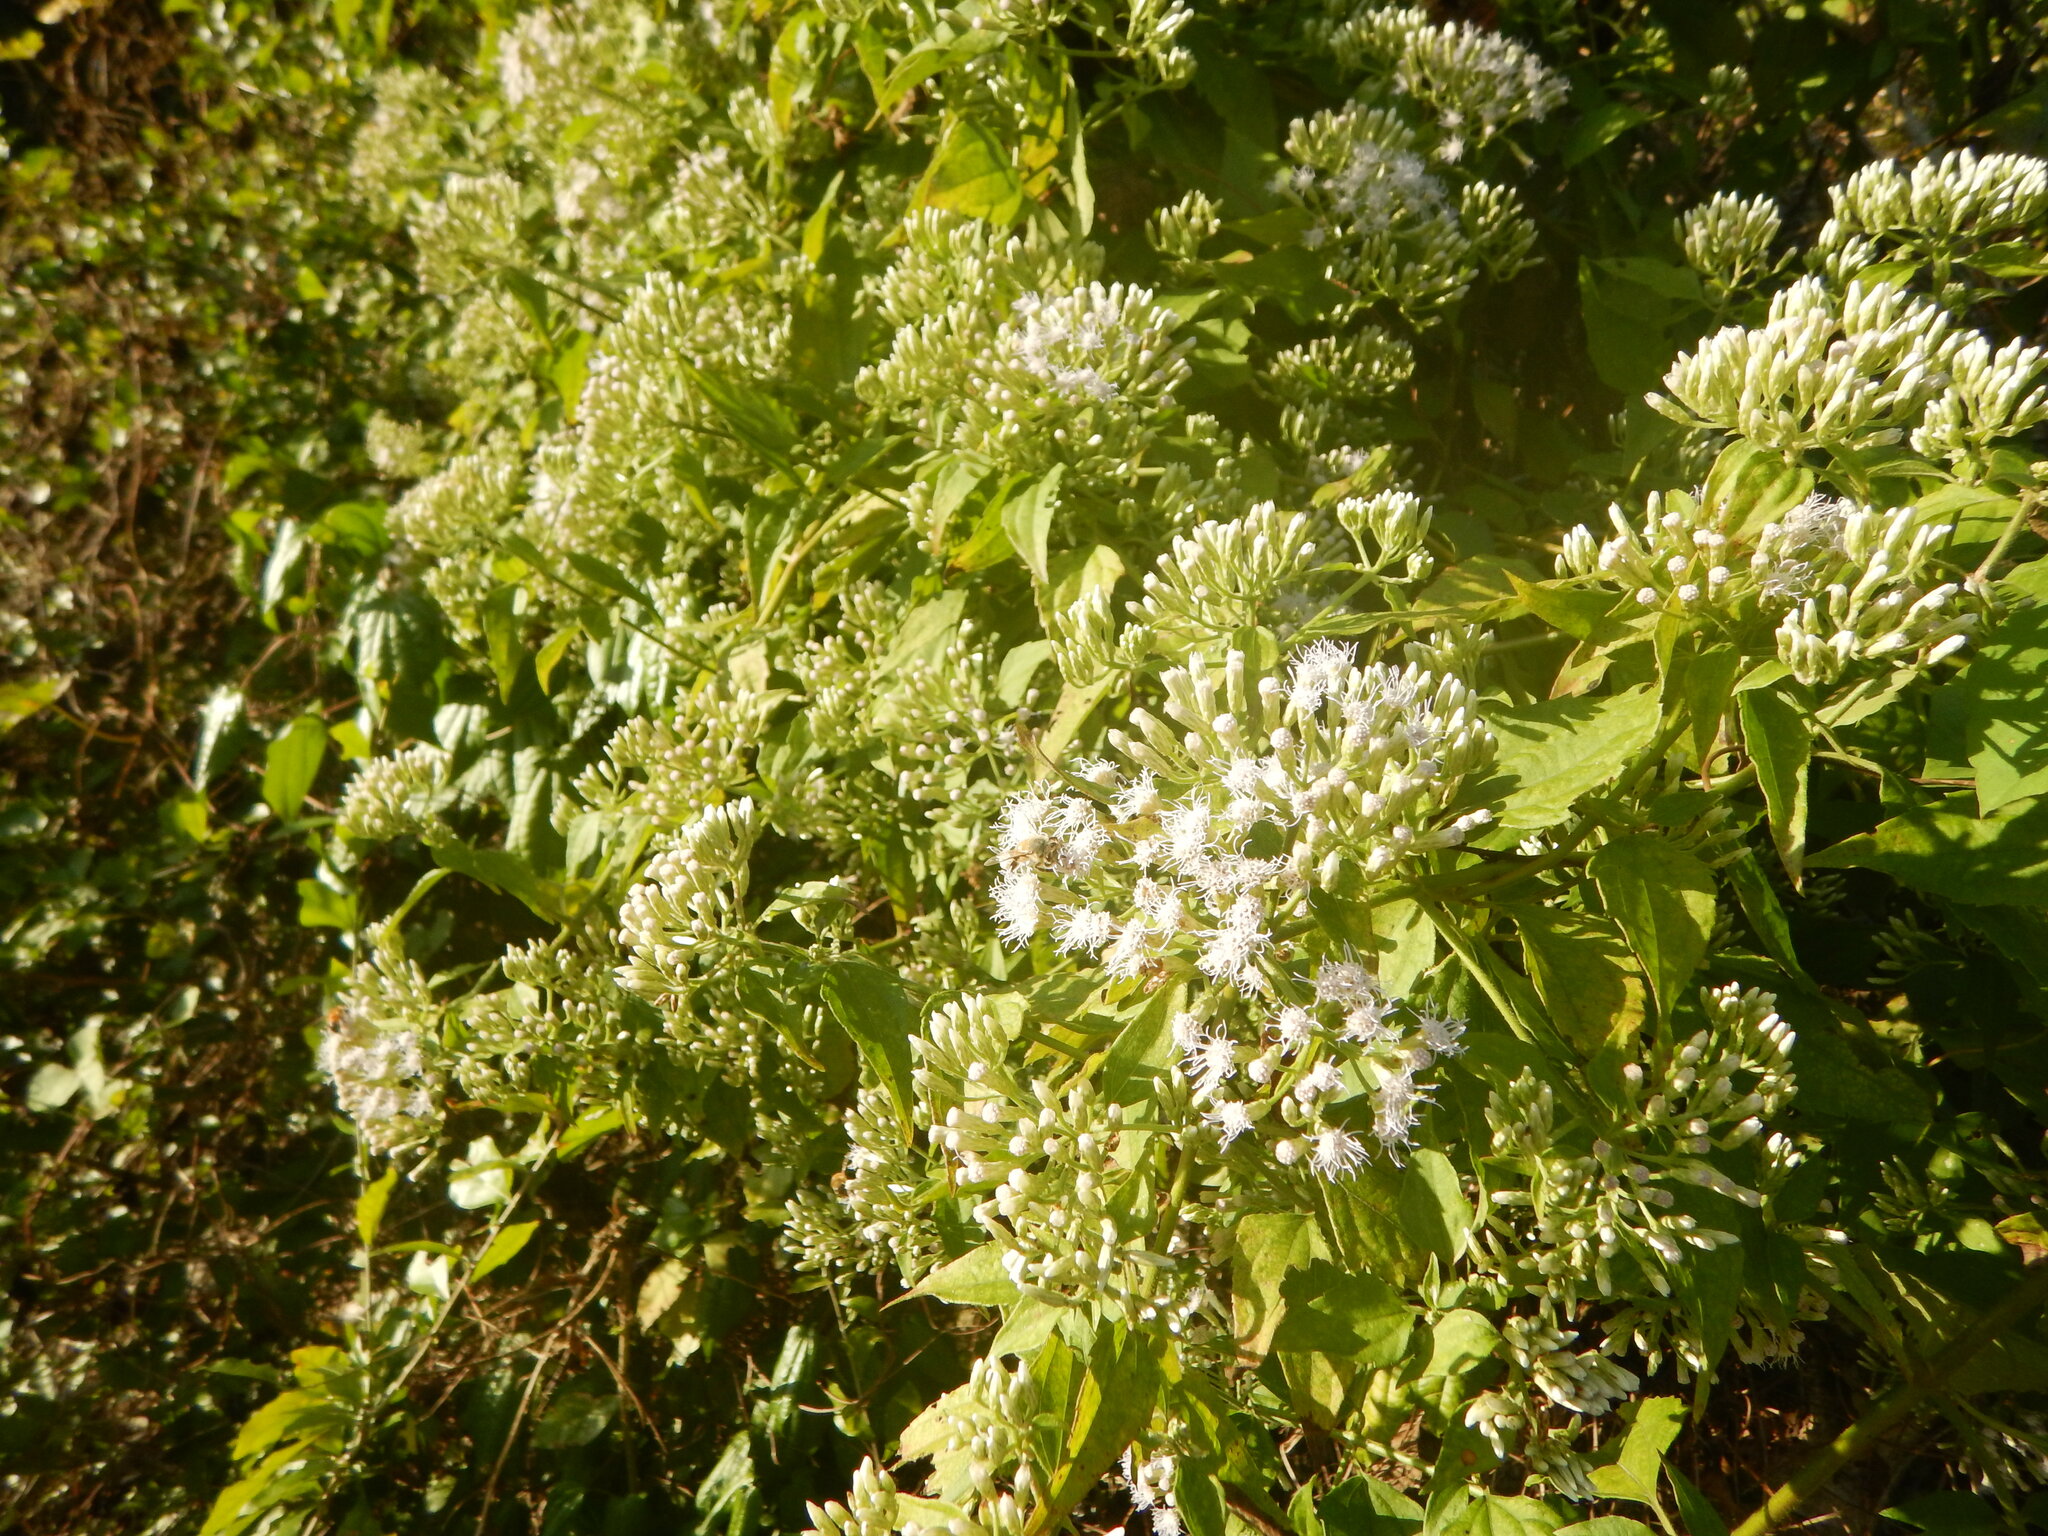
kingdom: Plantae
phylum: Tracheophyta
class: Magnoliopsida
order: Asterales
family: Asteraceae
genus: Chromolaena
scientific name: Chromolaena odorata
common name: Siamweed
